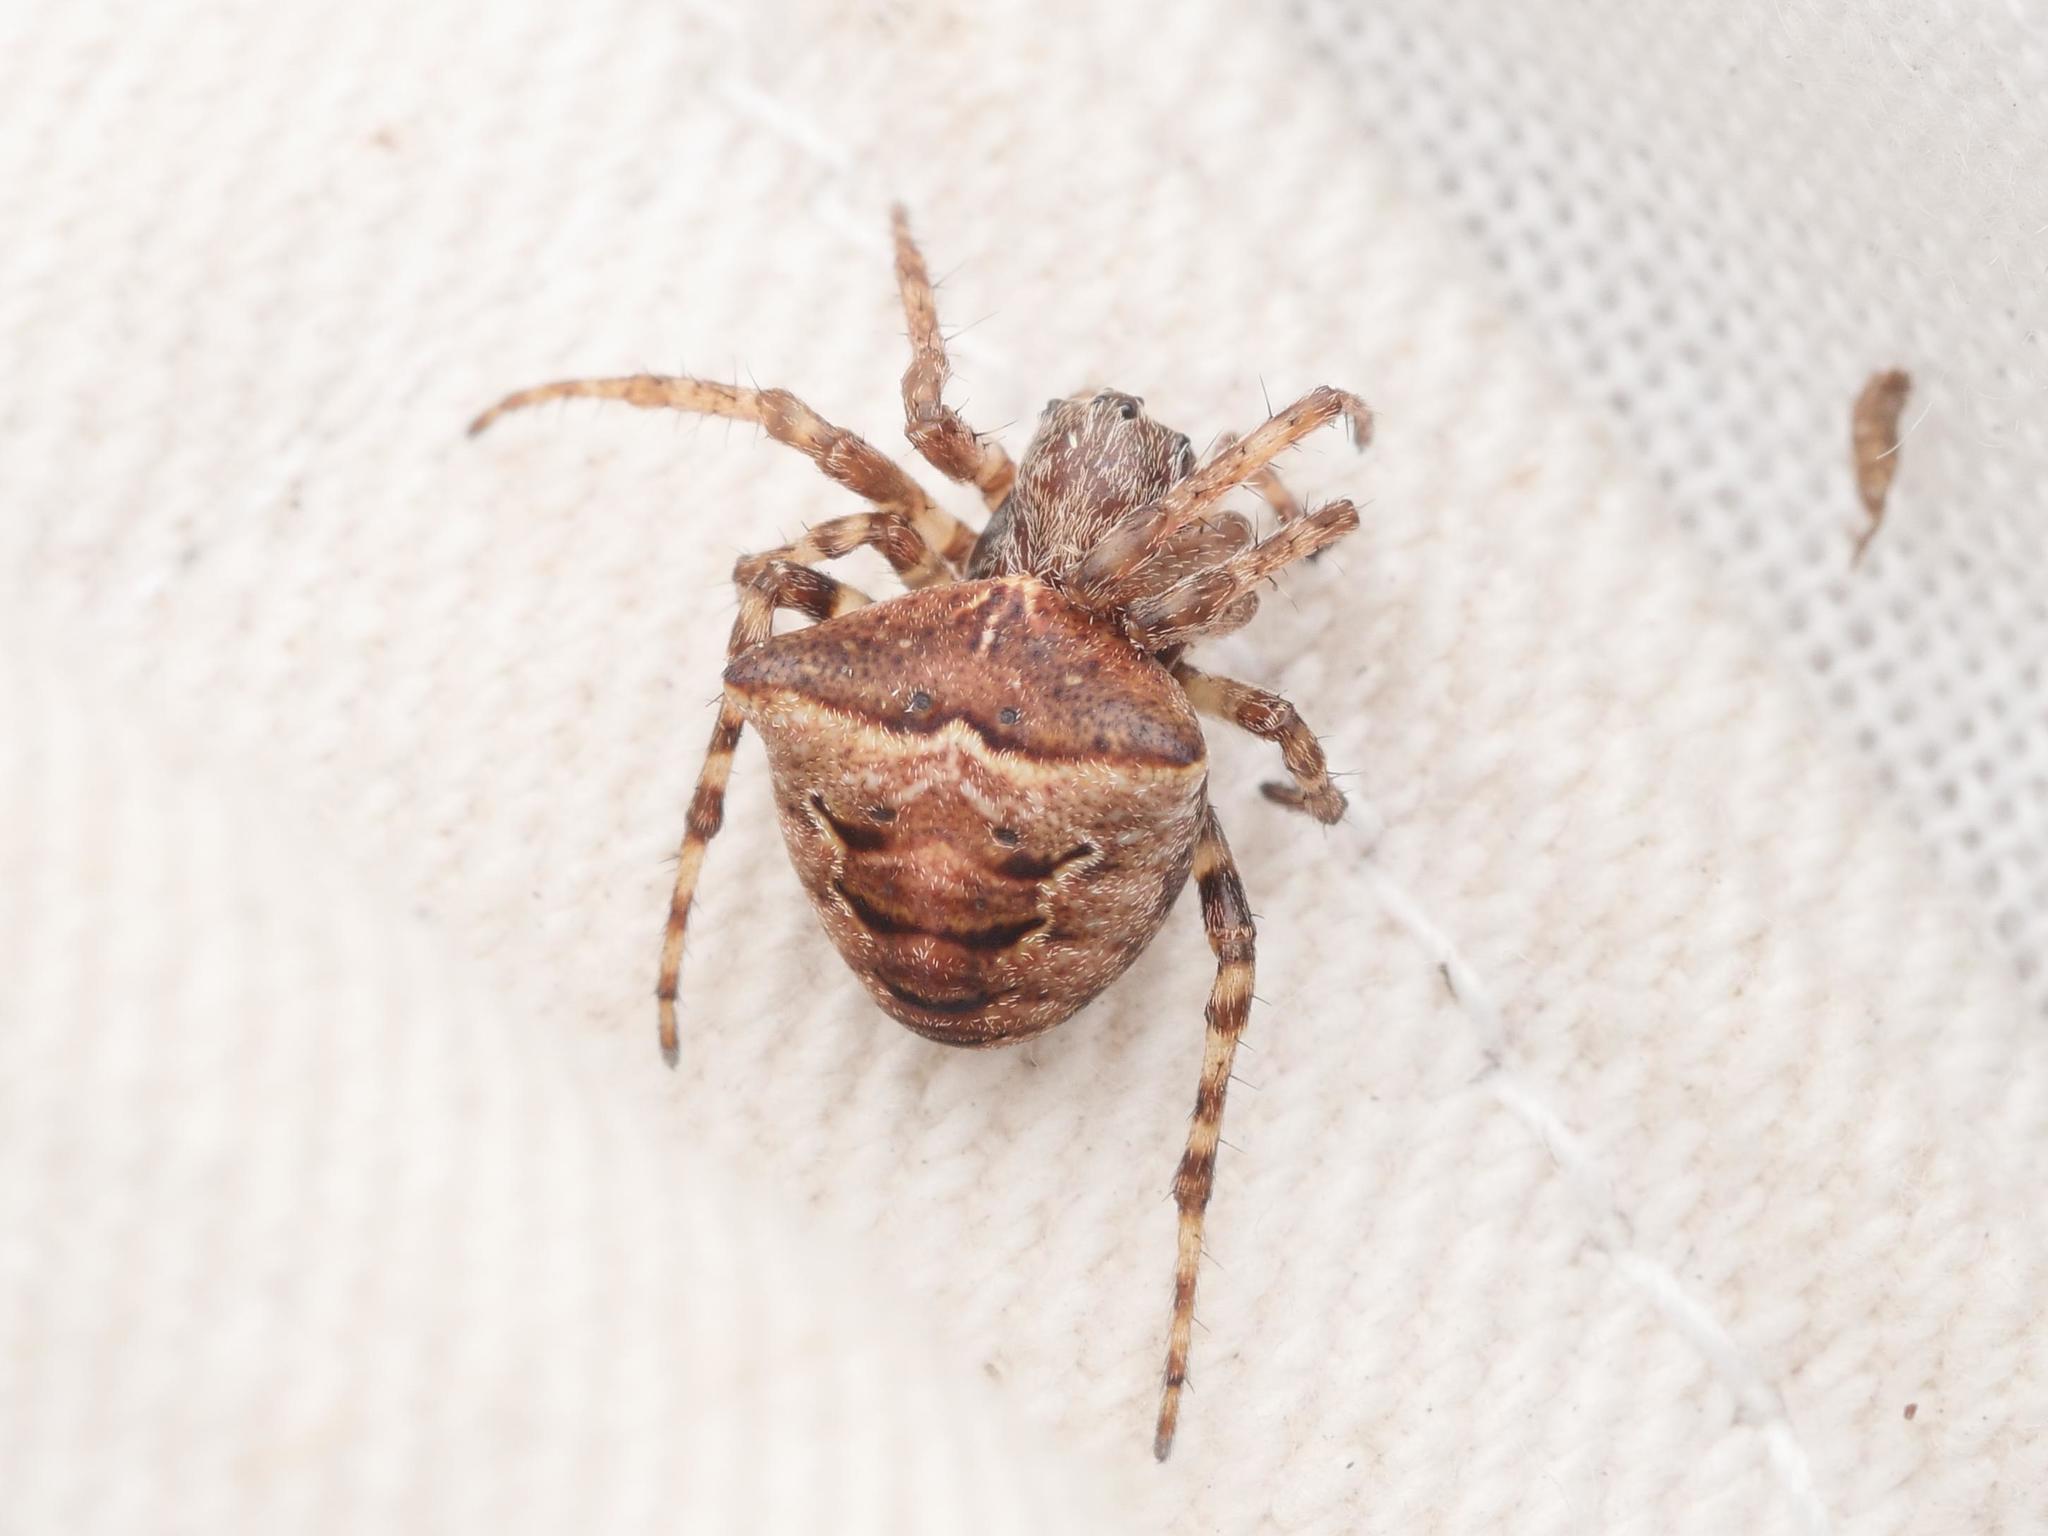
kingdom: Animalia
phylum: Arthropoda
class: Arachnida
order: Araneae
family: Araneidae
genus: Gibbaranea
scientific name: Gibbaranea bituberculata
